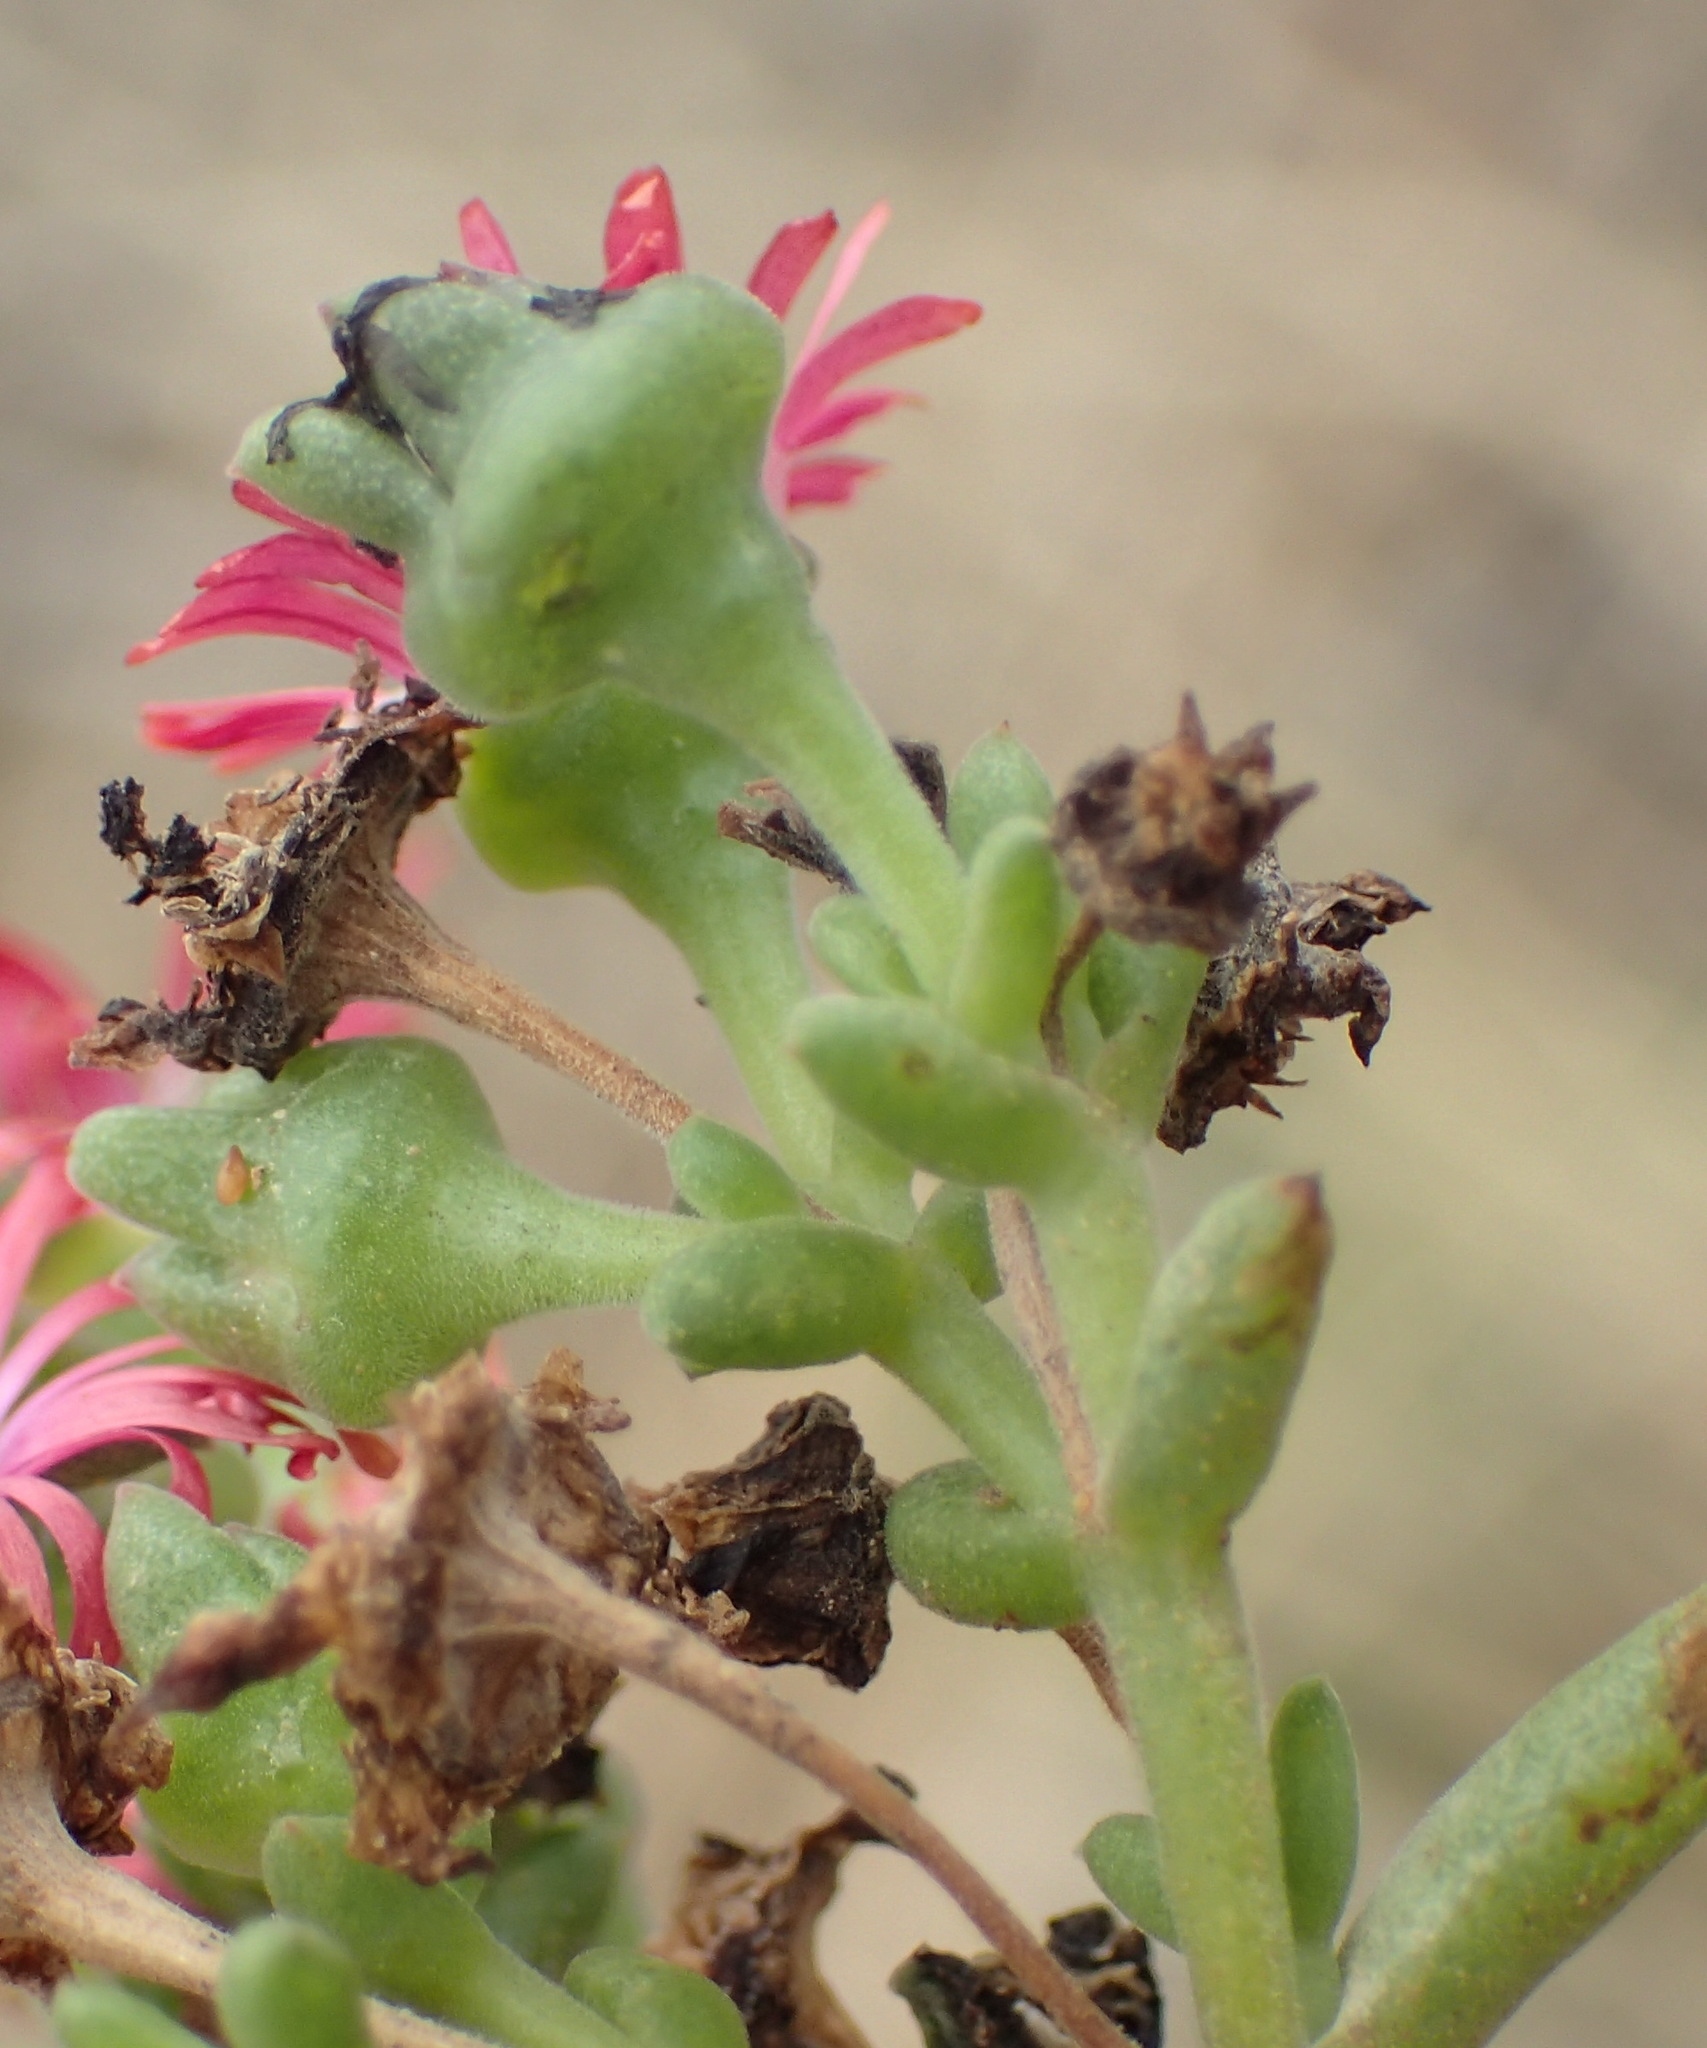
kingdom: Plantae
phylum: Tracheophyta
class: Magnoliopsida
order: Caryophyllales
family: Aizoaceae
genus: Delosperma
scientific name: Delosperma multiflorum
